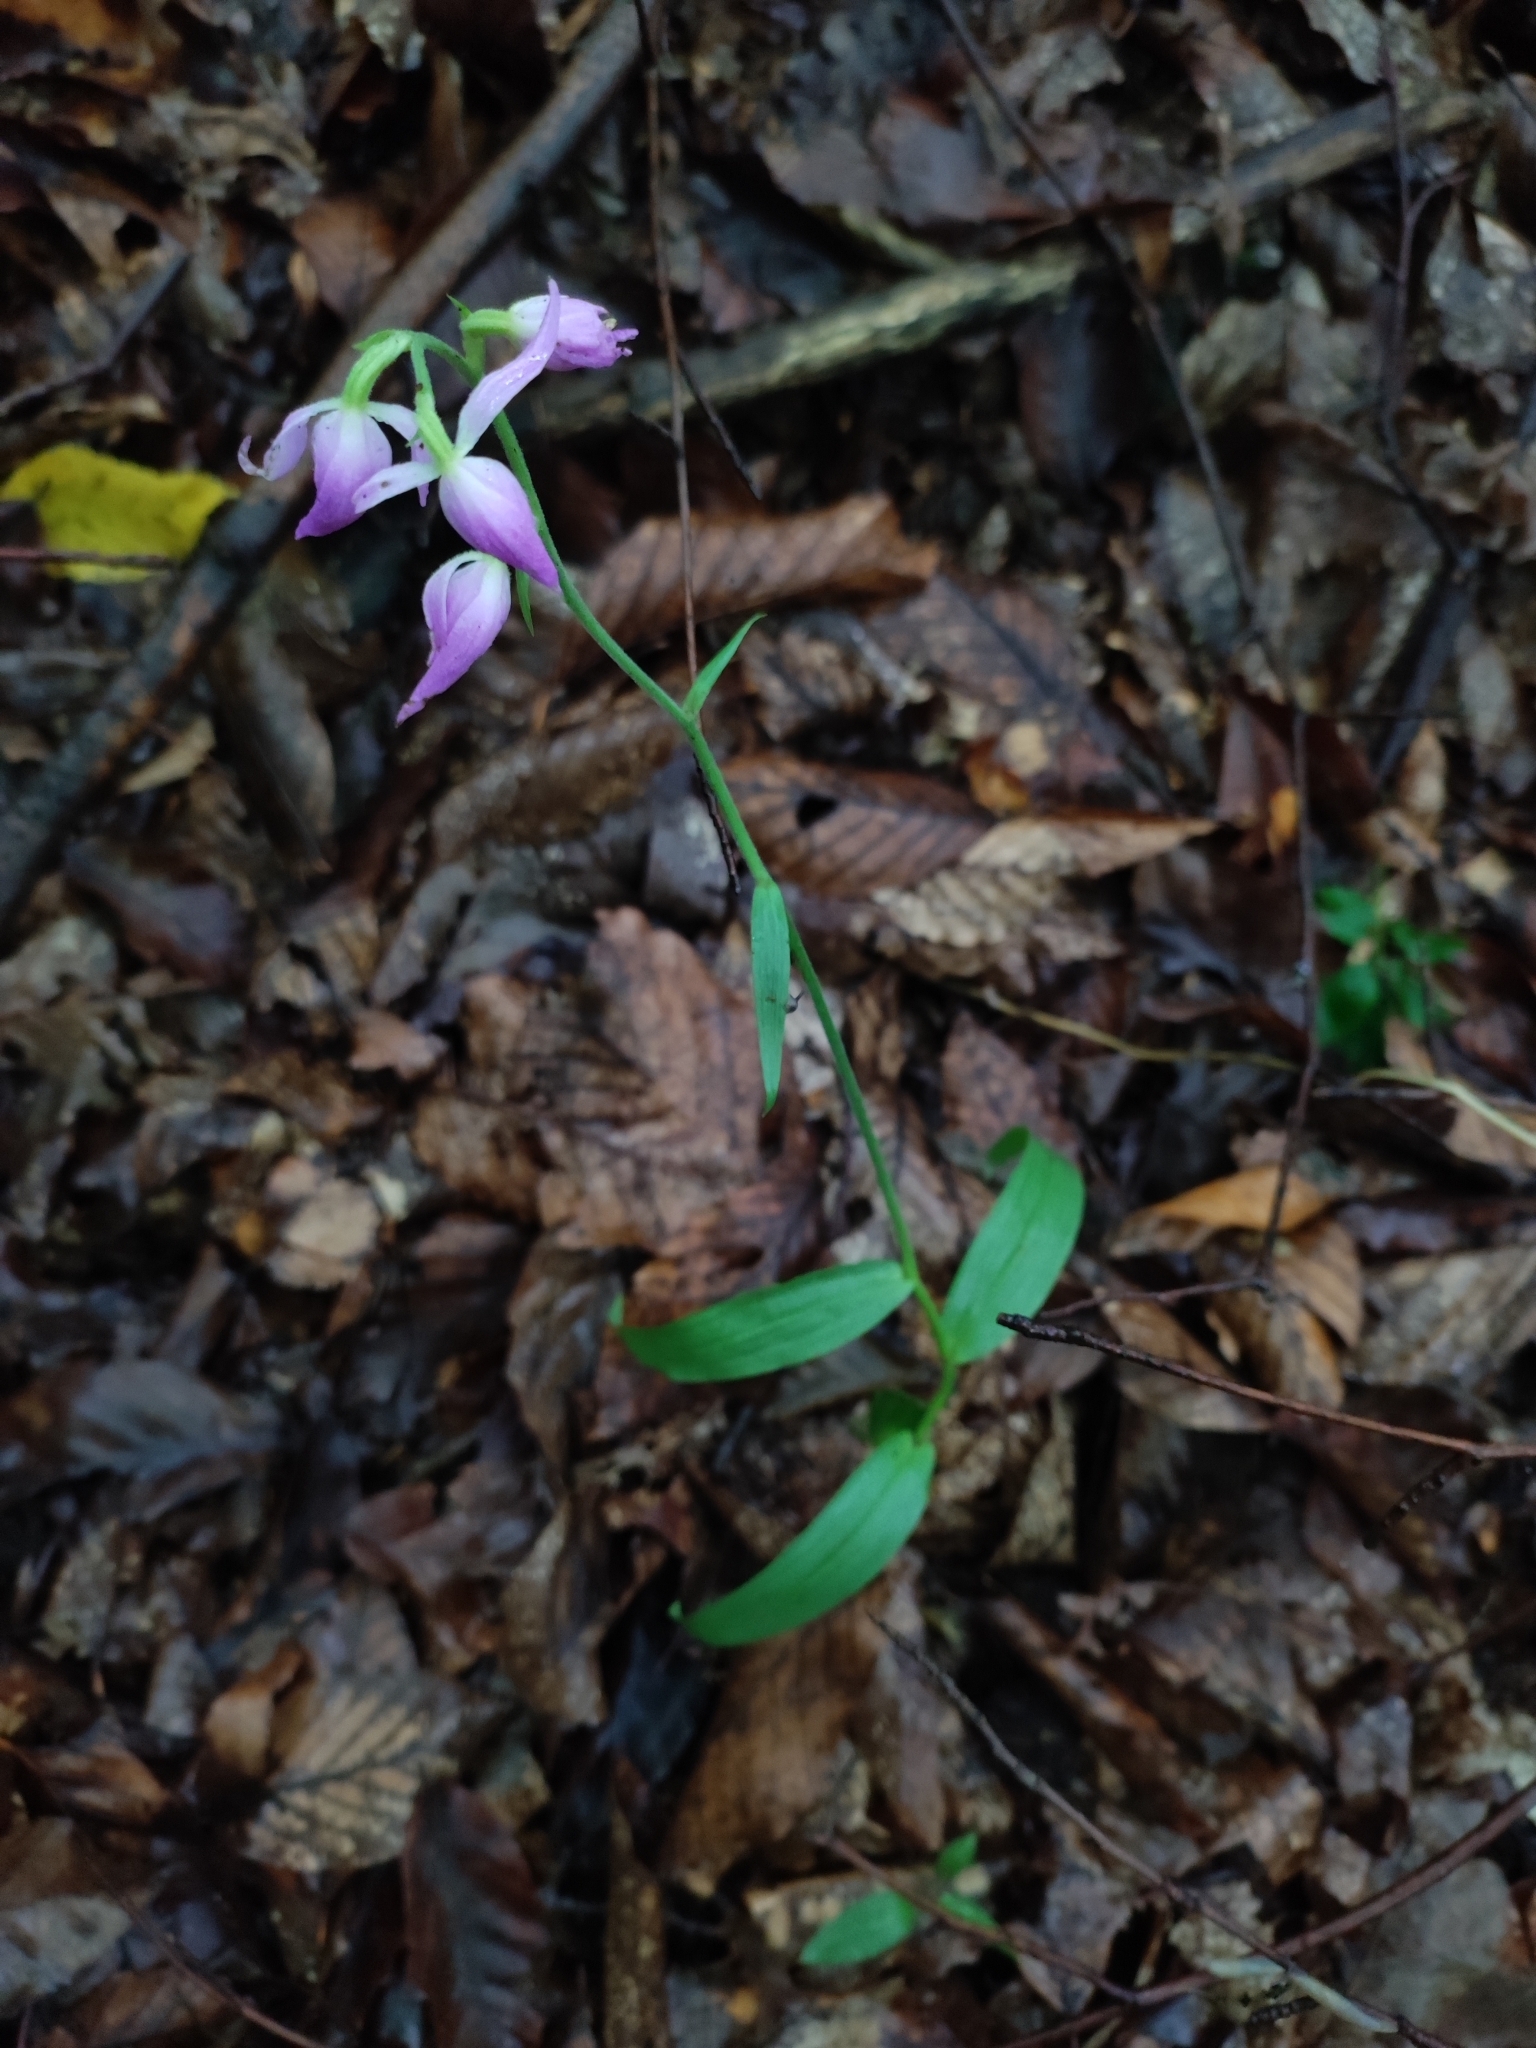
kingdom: Plantae
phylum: Tracheophyta
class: Liliopsida
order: Asparagales
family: Orchidaceae
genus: Cephalanthera
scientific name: Cephalanthera rubra
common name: Red helleborine
